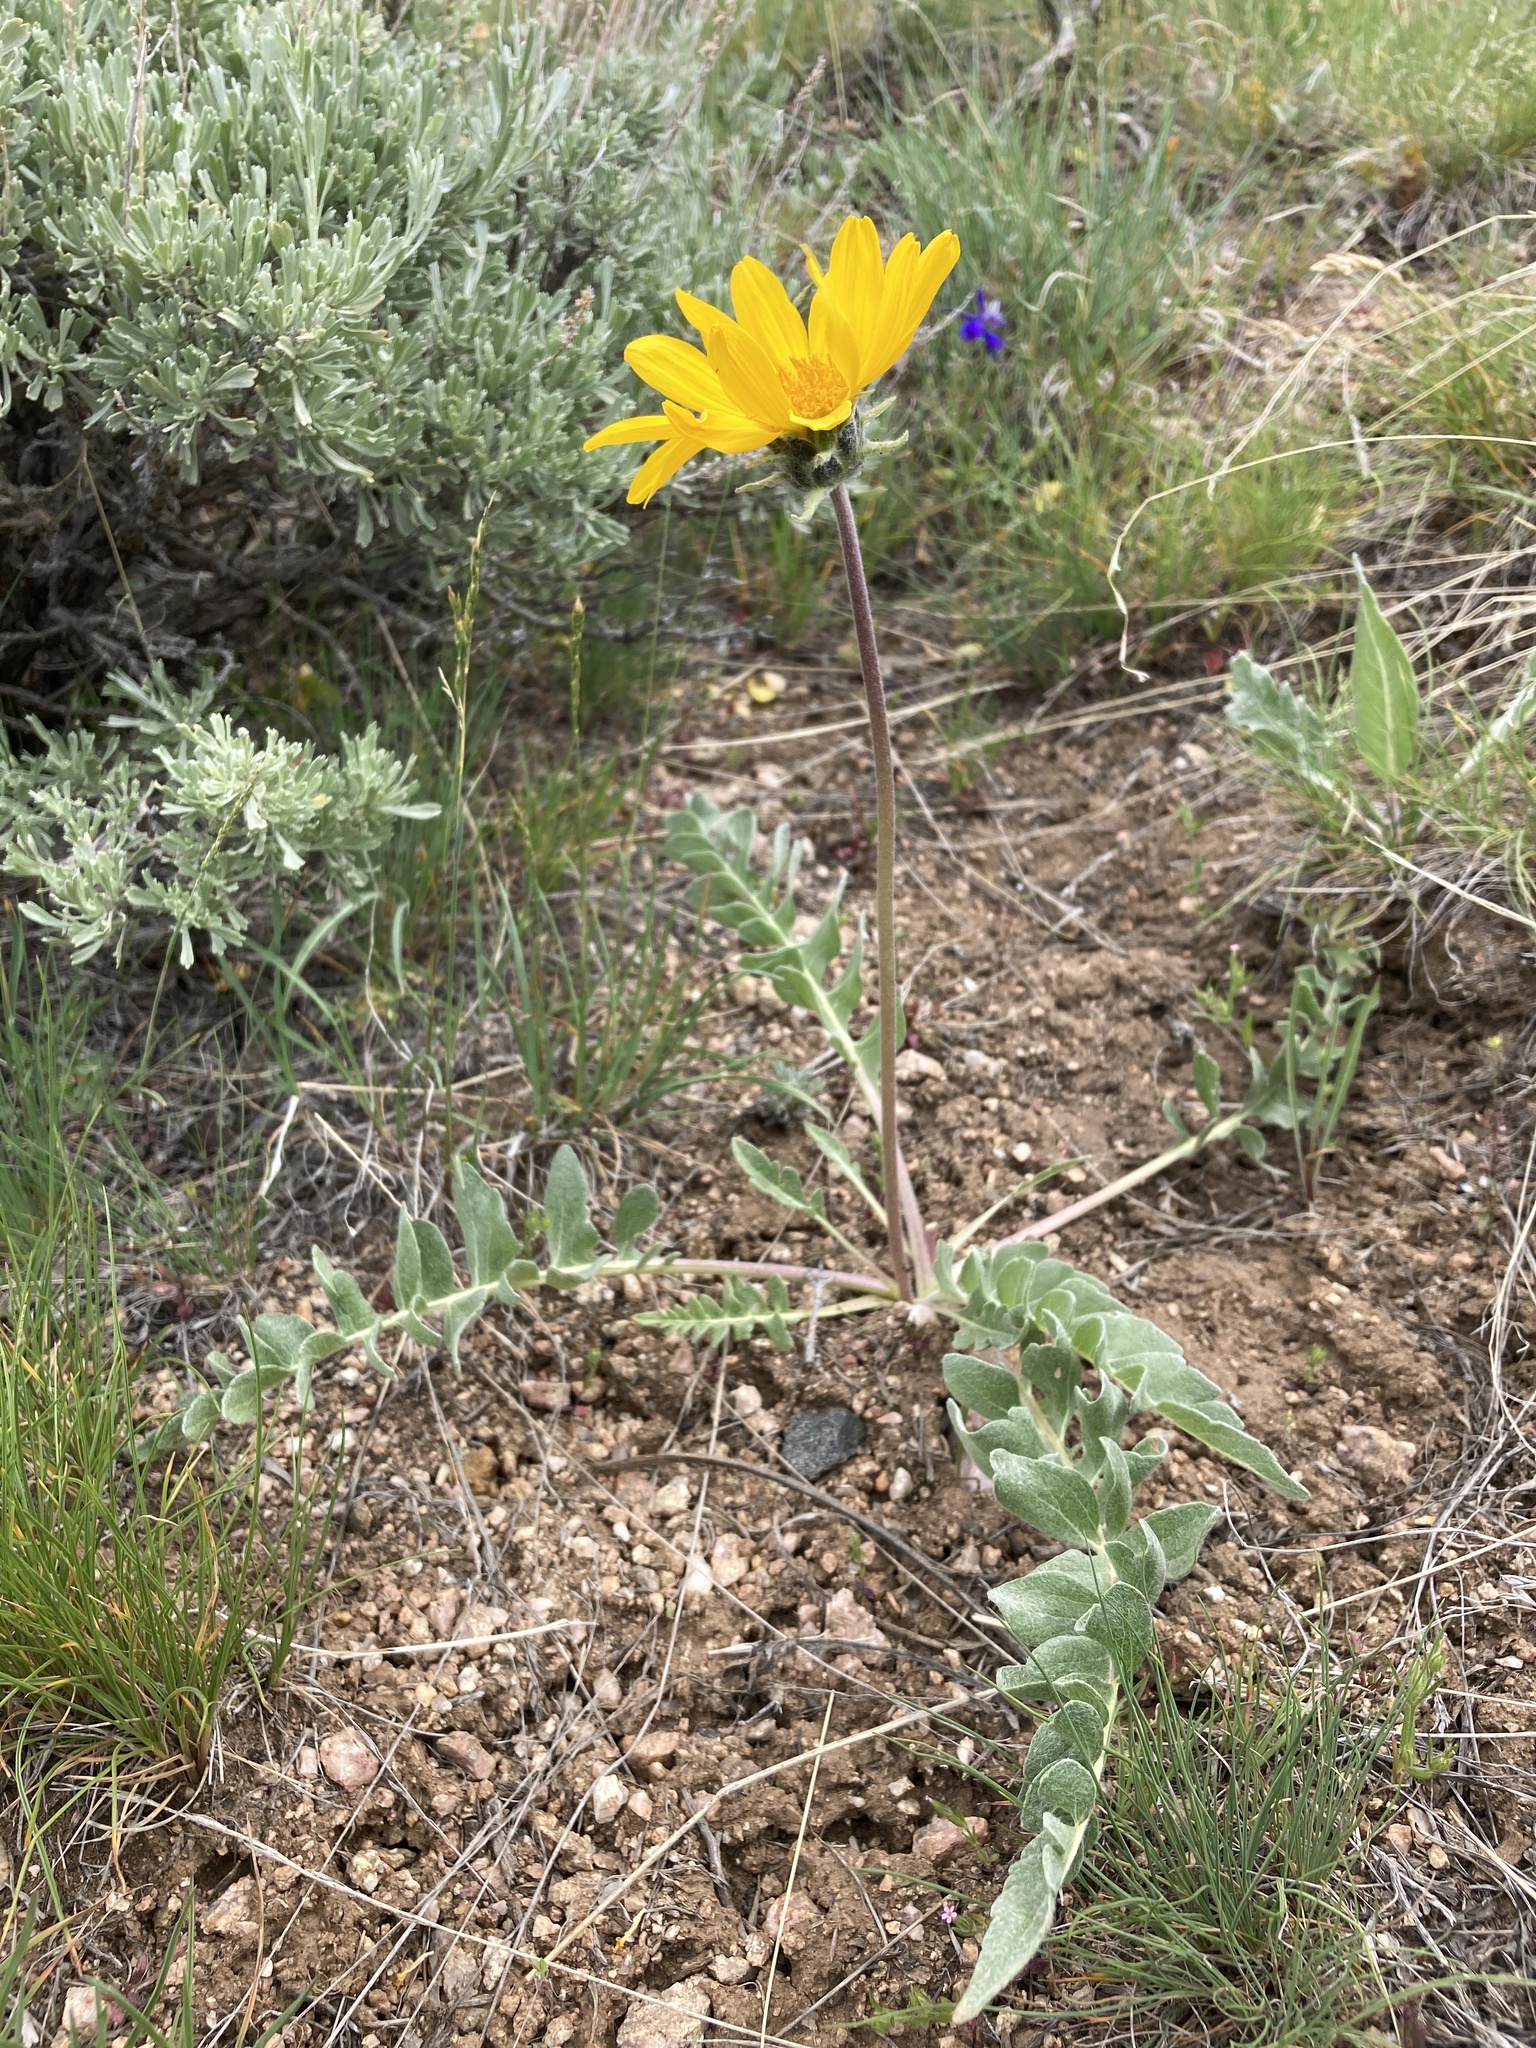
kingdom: Plantae
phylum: Tracheophyta
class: Magnoliopsida
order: Asterales
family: Asteraceae
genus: Balsamorhiza
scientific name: Balsamorhiza incana
